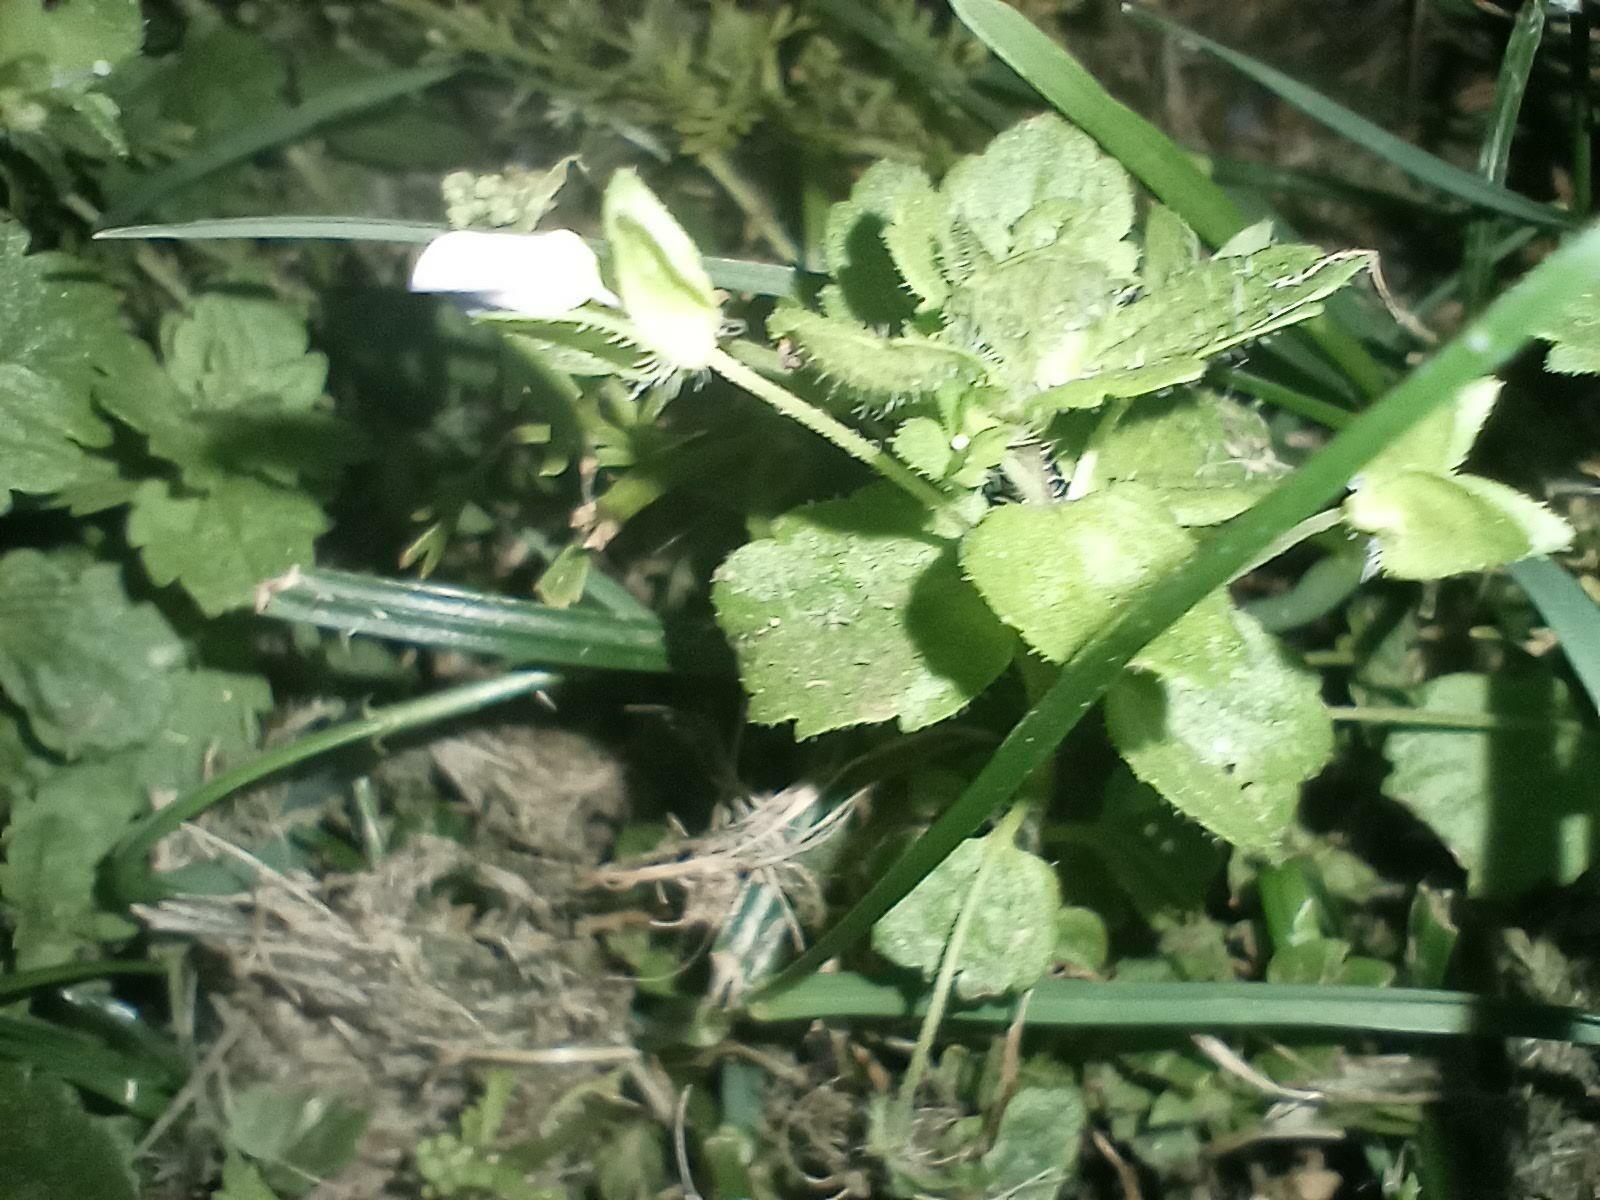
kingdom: Plantae
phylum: Tracheophyta
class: Magnoliopsida
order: Lamiales
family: Plantaginaceae
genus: Veronica
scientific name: Veronica persica
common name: Common field-speedwell
